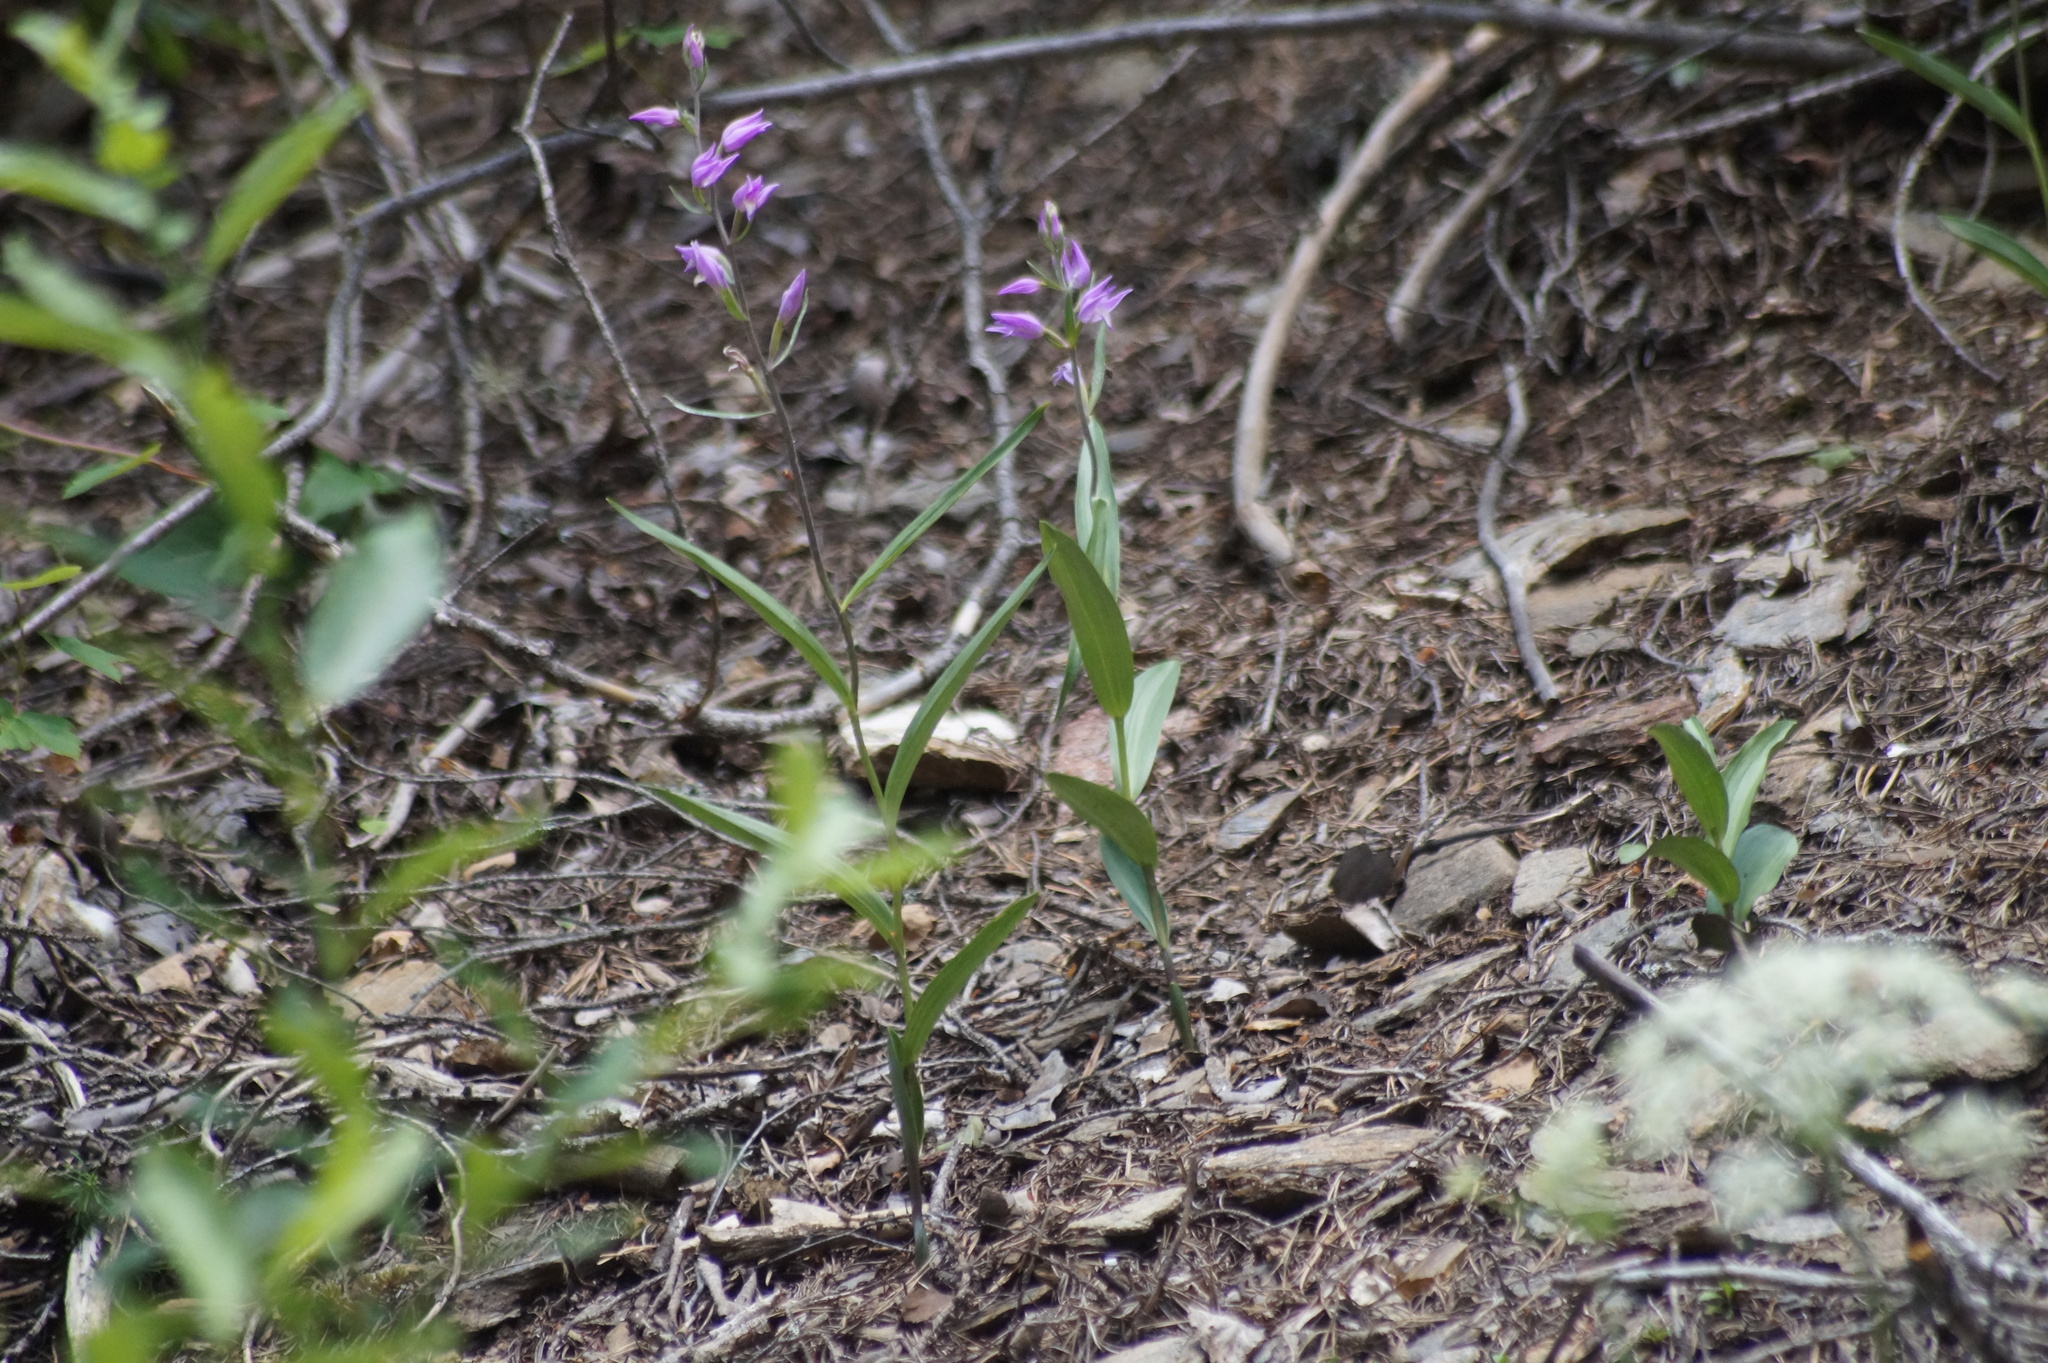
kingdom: Plantae
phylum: Tracheophyta
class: Liliopsida
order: Asparagales
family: Orchidaceae
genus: Cephalanthera
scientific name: Cephalanthera rubra
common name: Red helleborine
